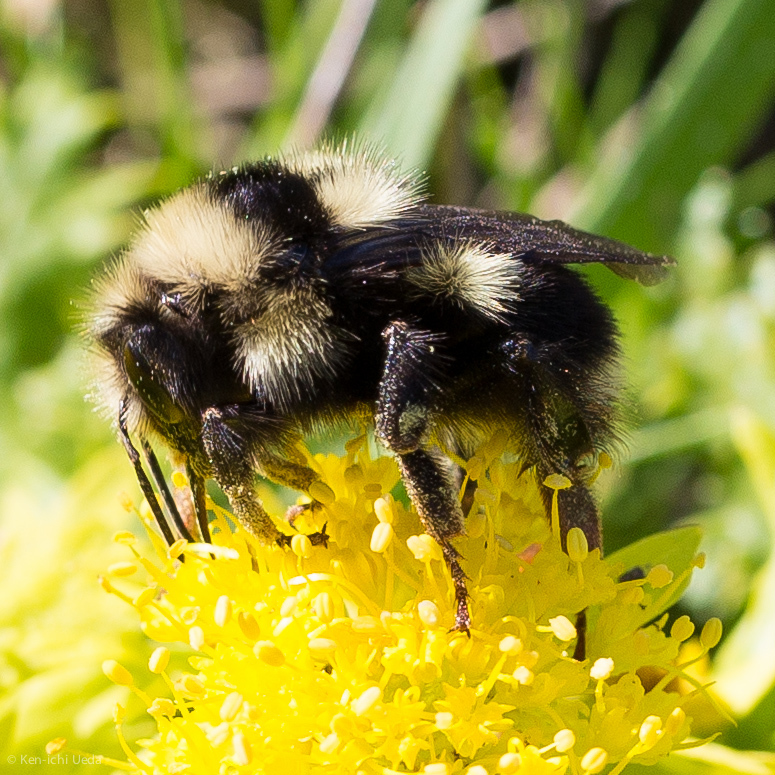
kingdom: Animalia
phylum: Arthropoda
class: Insecta
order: Hymenoptera
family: Apidae
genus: Bombus
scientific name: Bombus vancouverensis
